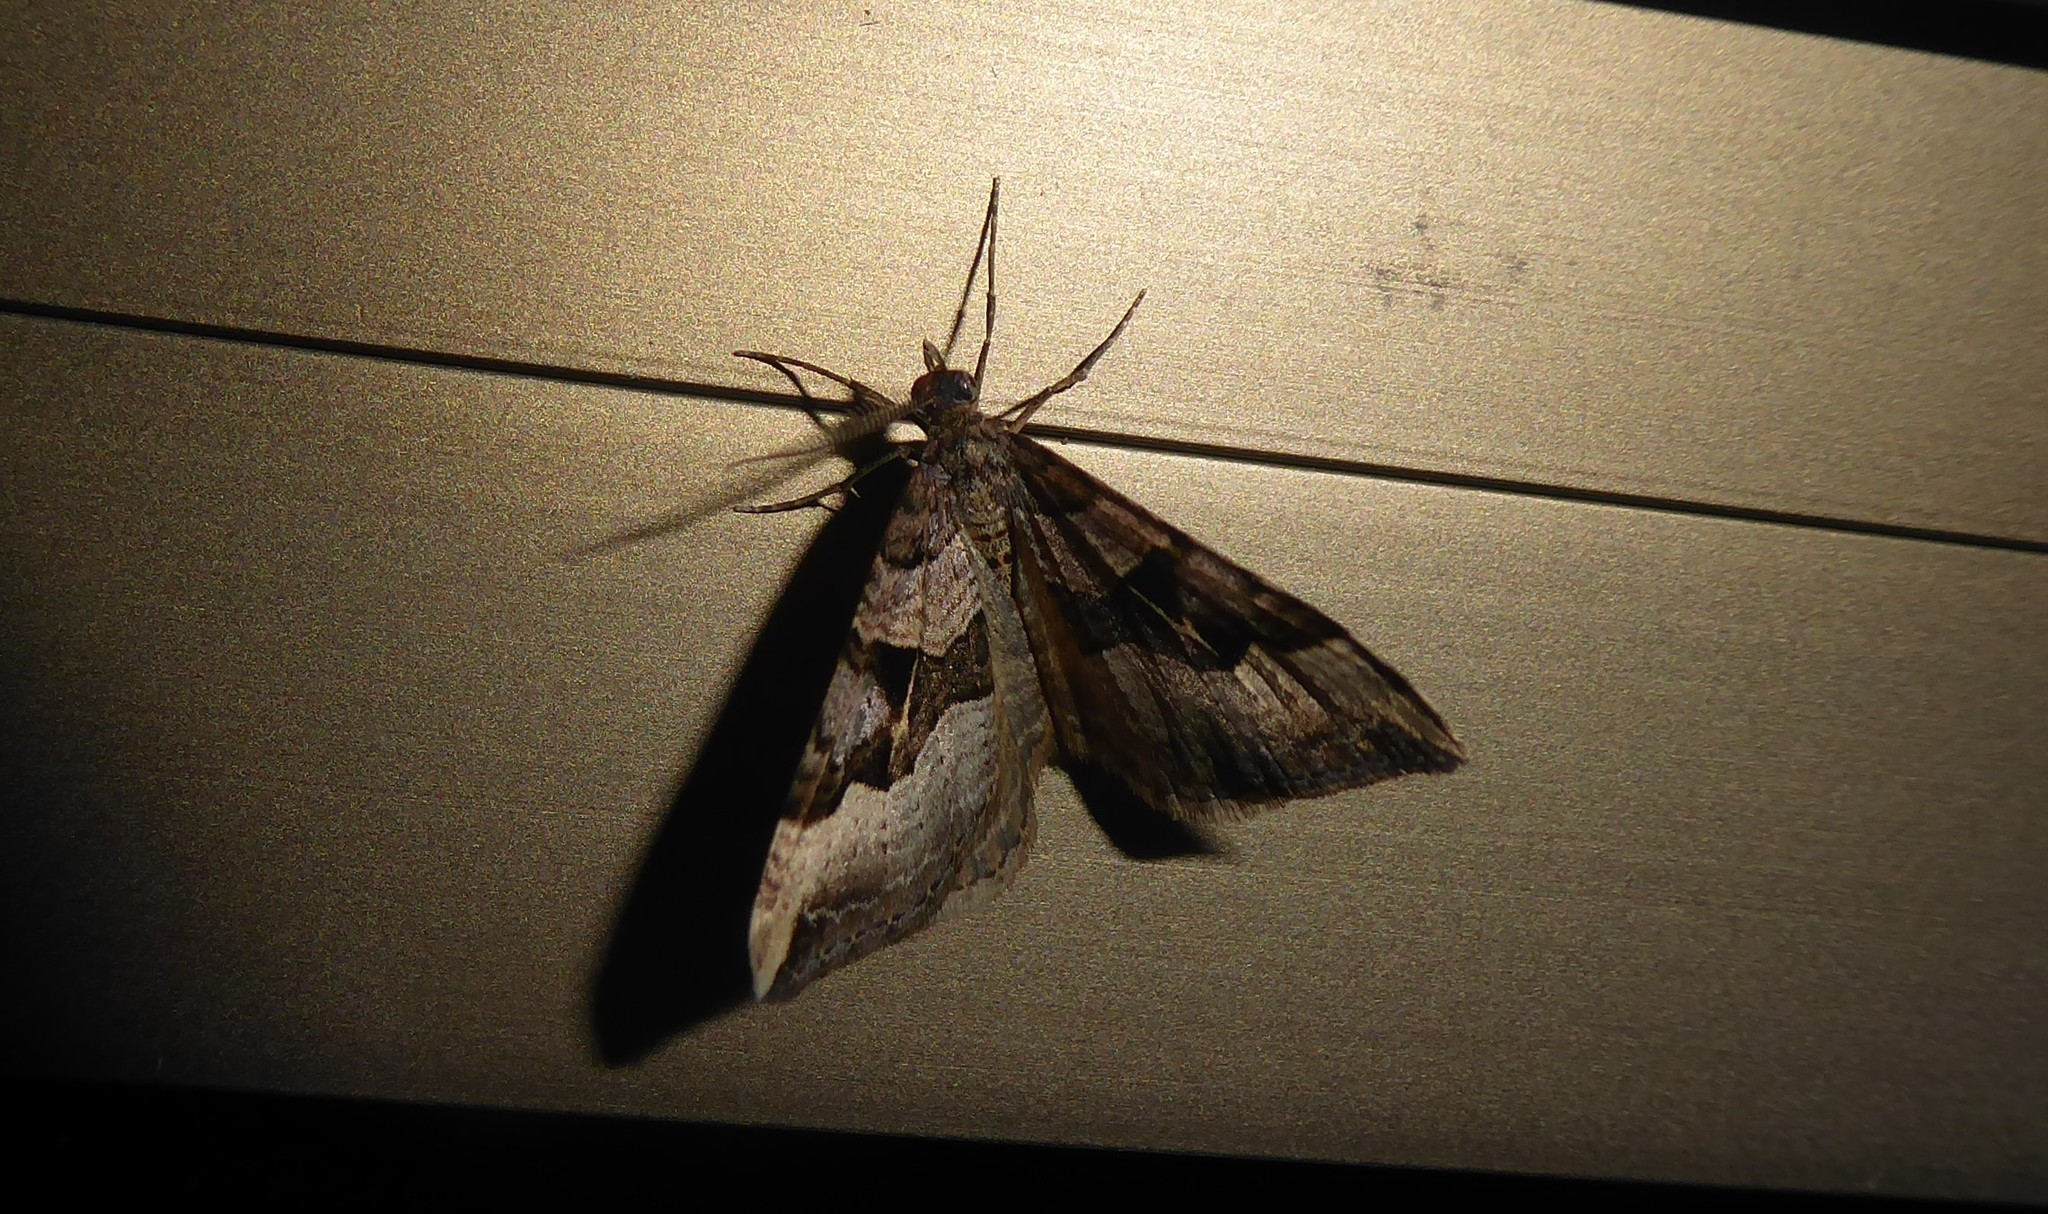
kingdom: Animalia
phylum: Arthropoda
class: Insecta
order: Lepidoptera
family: Geometridae
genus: Xanthorhoe
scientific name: Xanthorhoe semifissata
